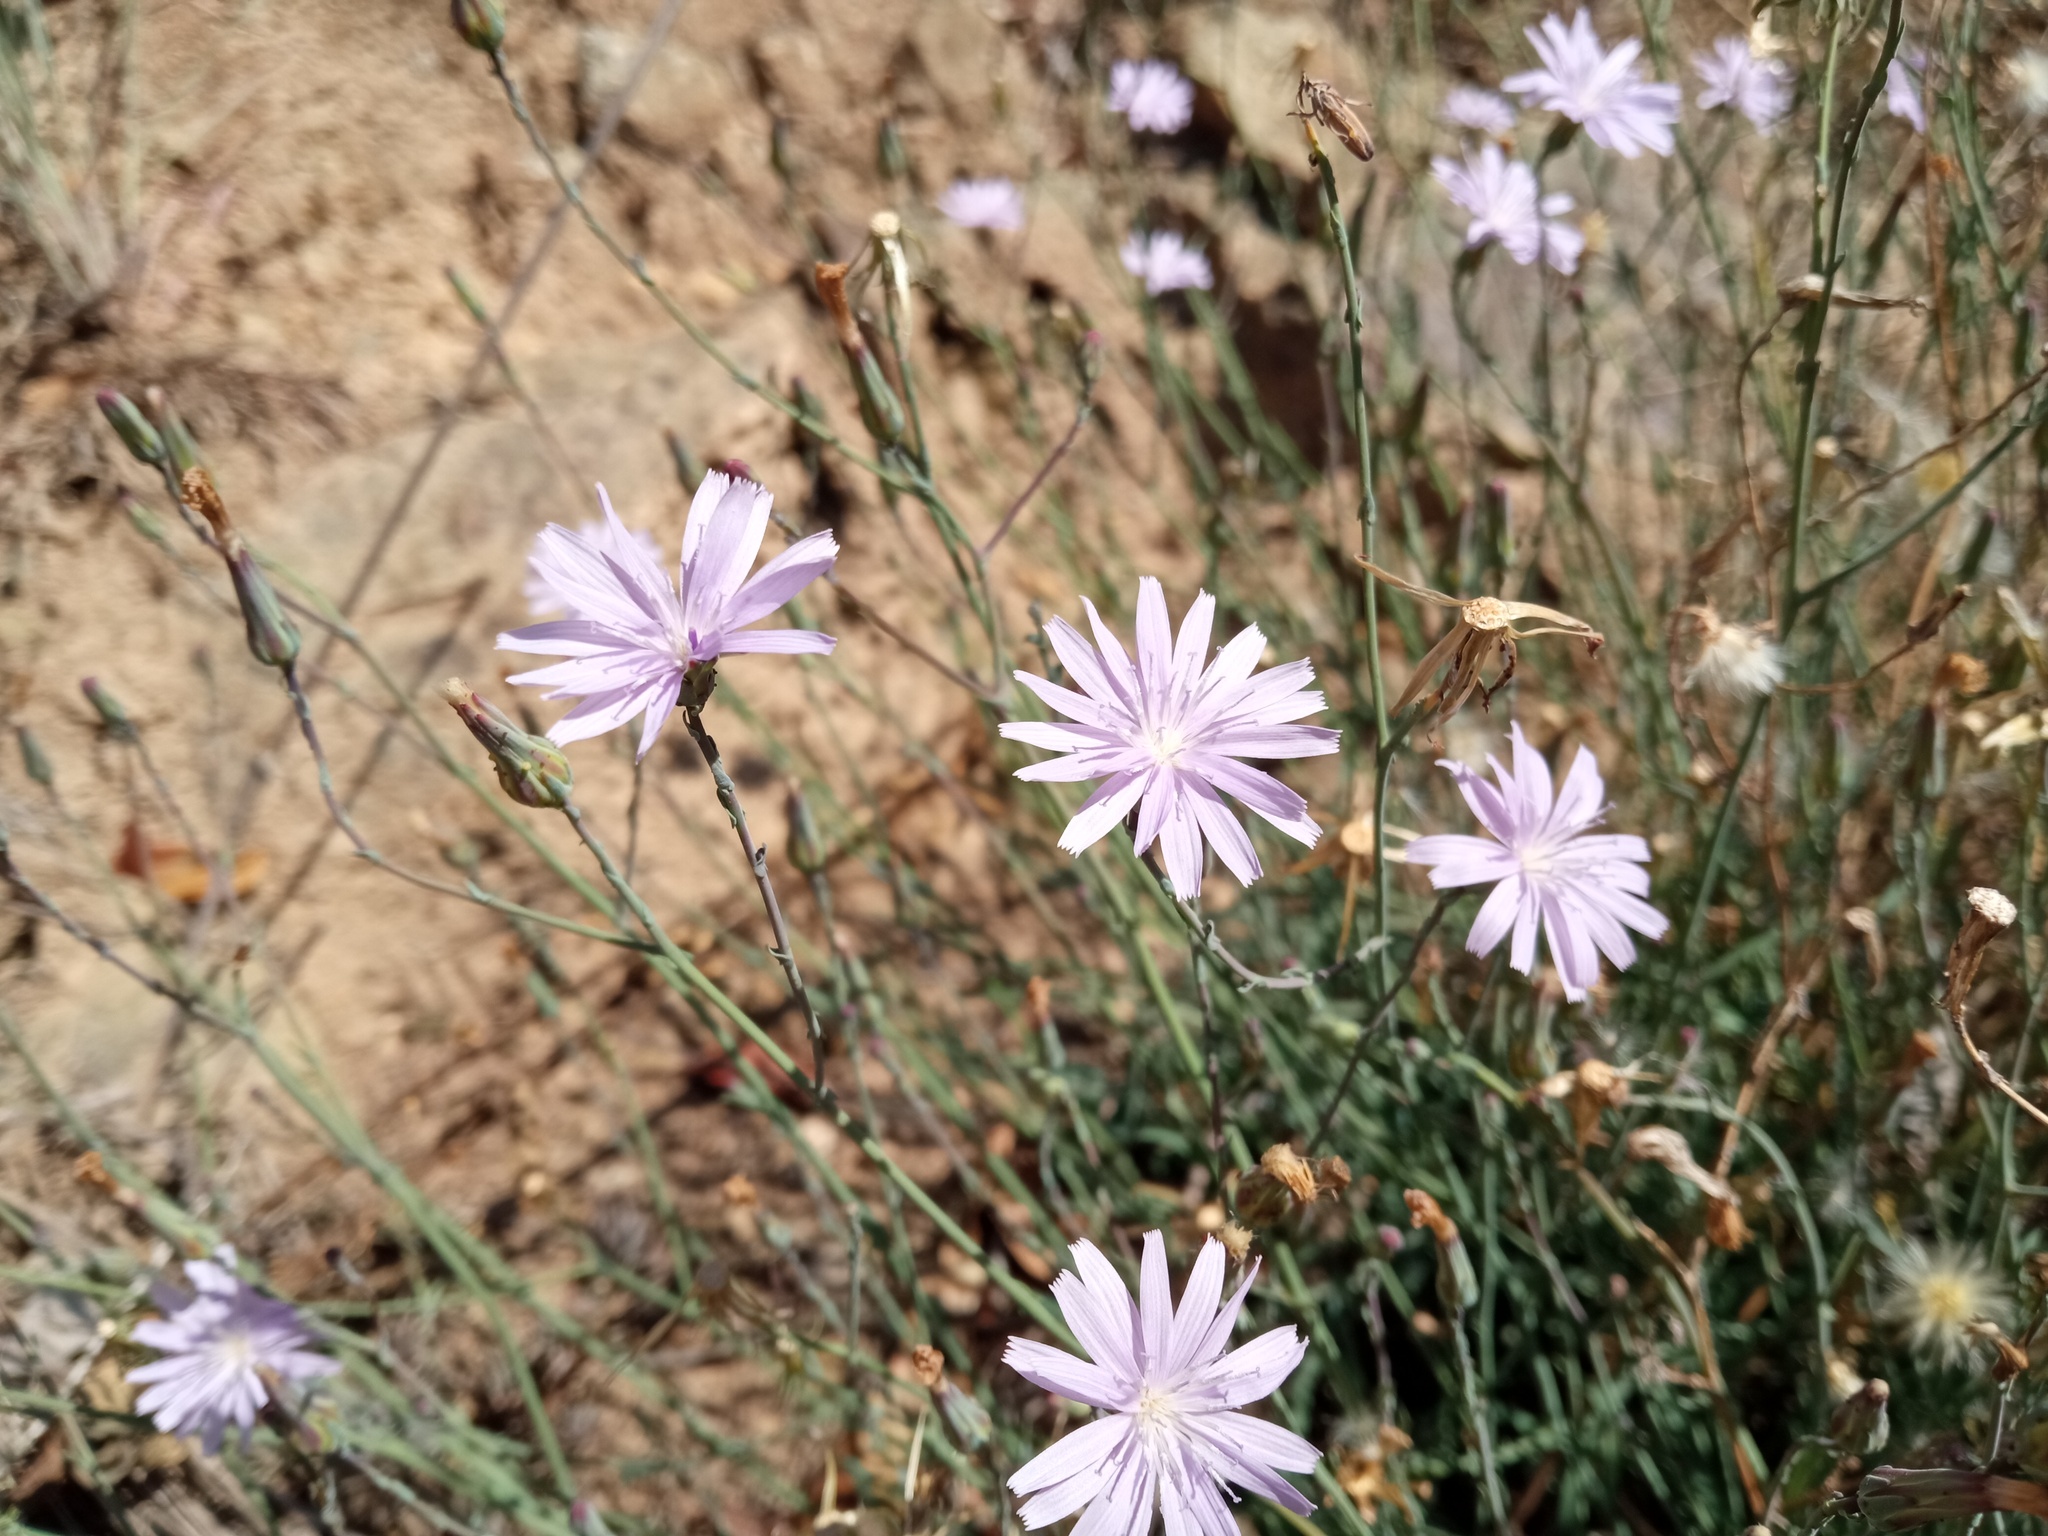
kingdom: Plantae
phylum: Tracheophyta
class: Magnoliopsida
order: Asterales
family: Asteraceae
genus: Lactuca
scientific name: Lactuca tenerrima
